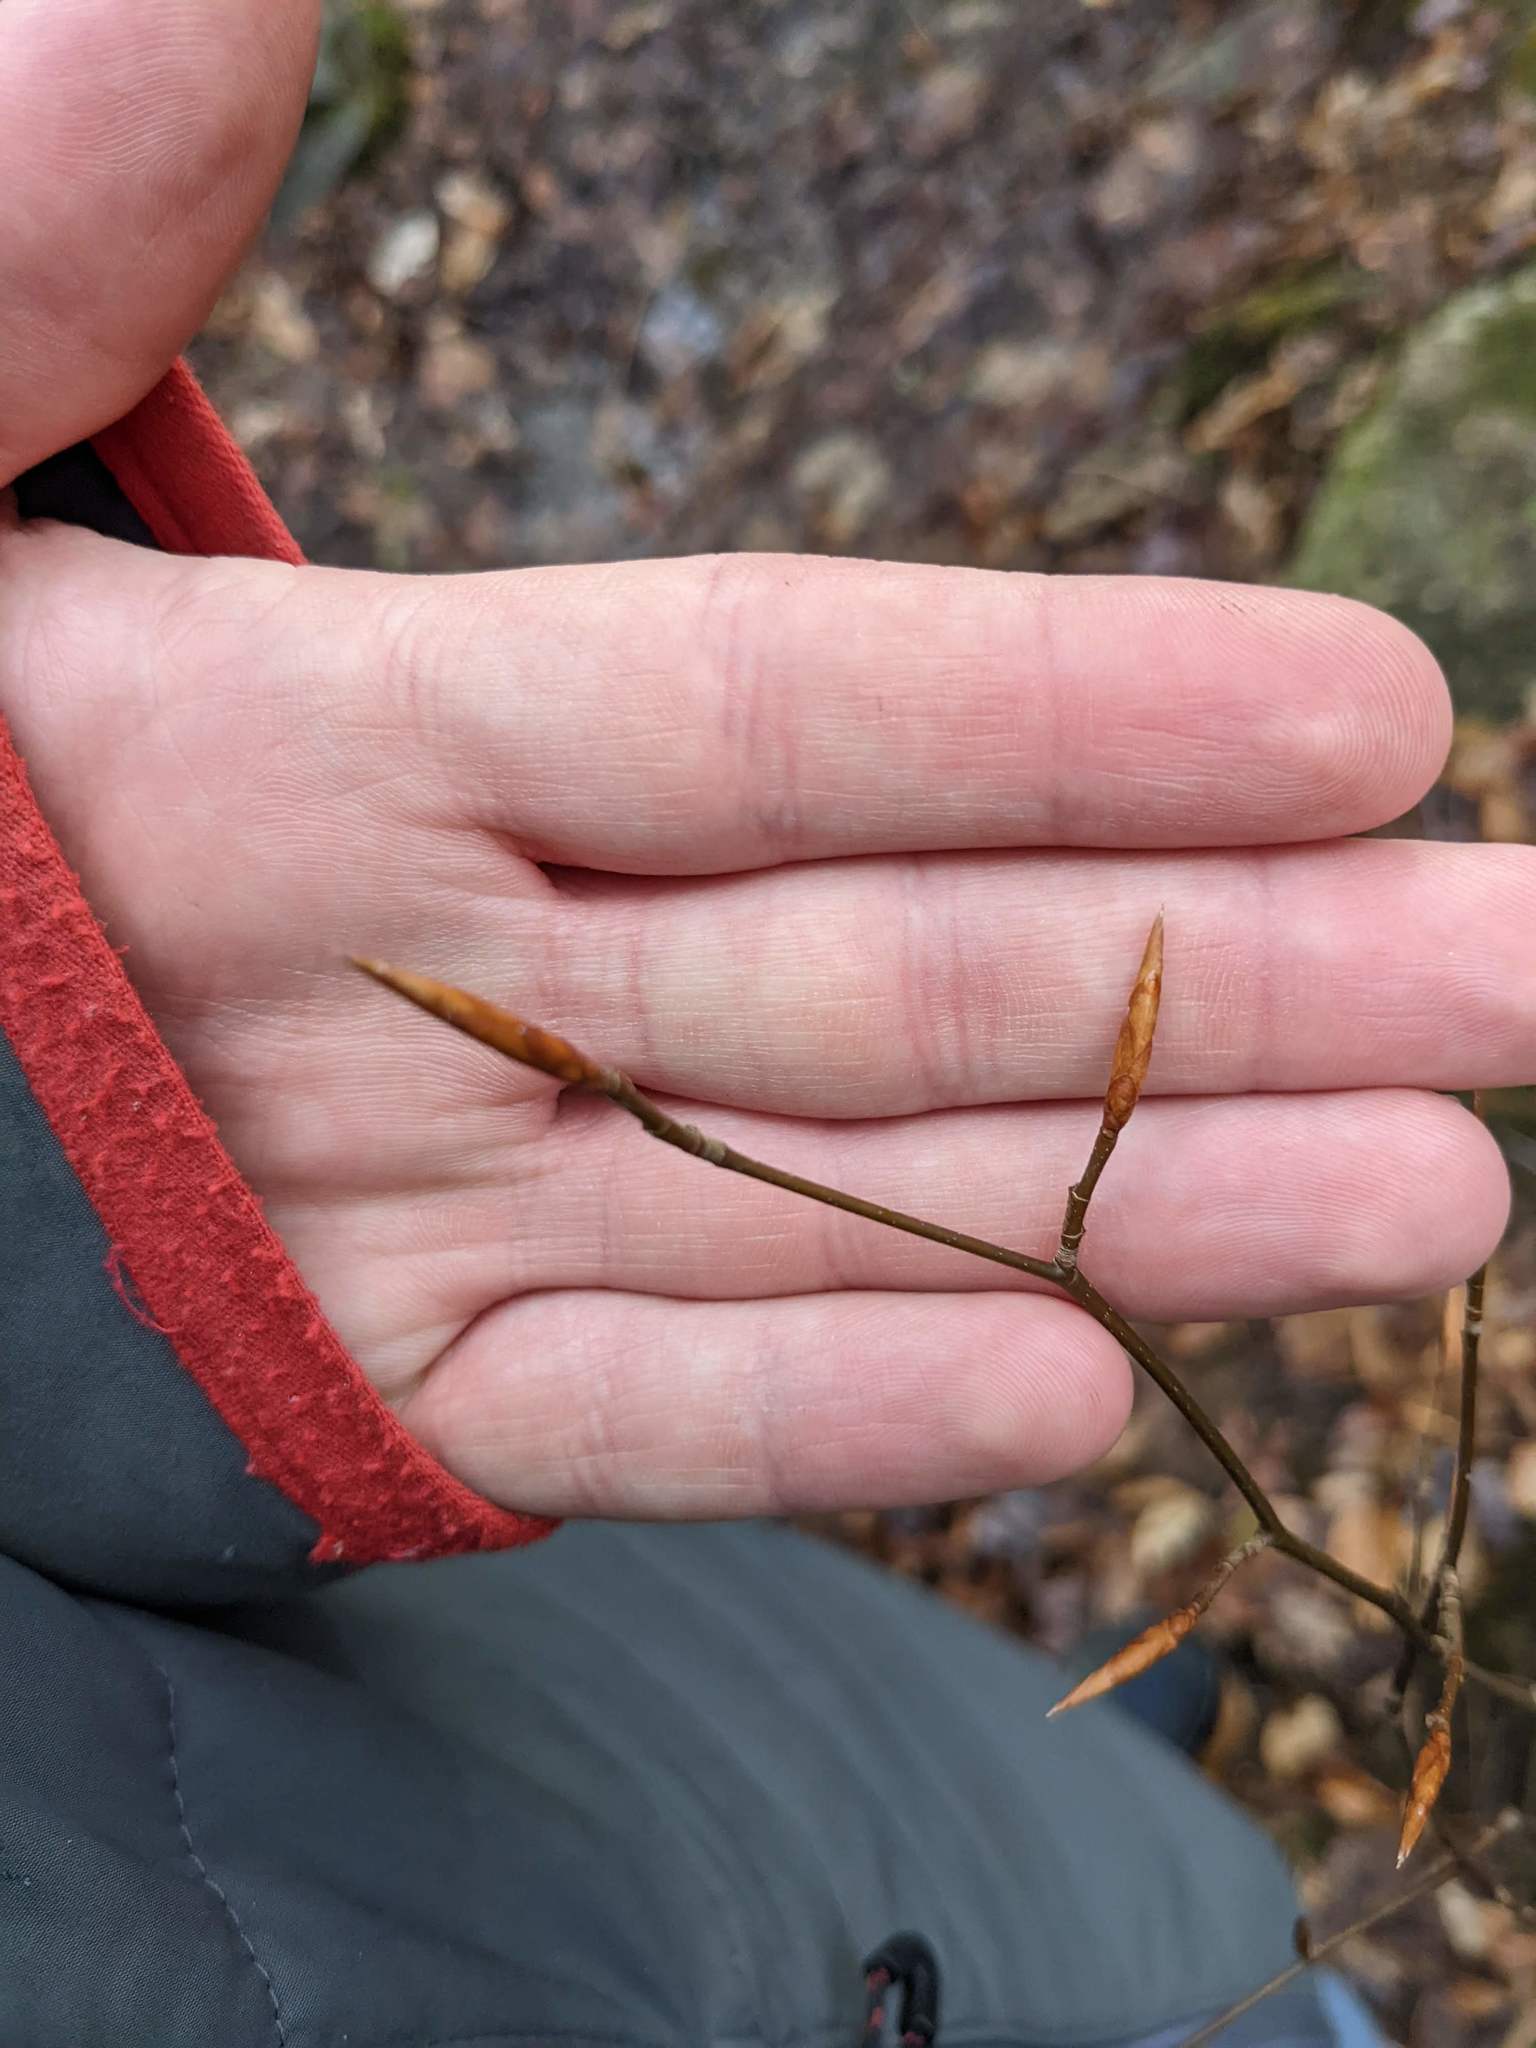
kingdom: Plantae
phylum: Tracheophyta
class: Magnoliopsida
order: Fagales
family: Fagaceae
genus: Fagus
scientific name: Fagus grandifolia
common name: American beech
